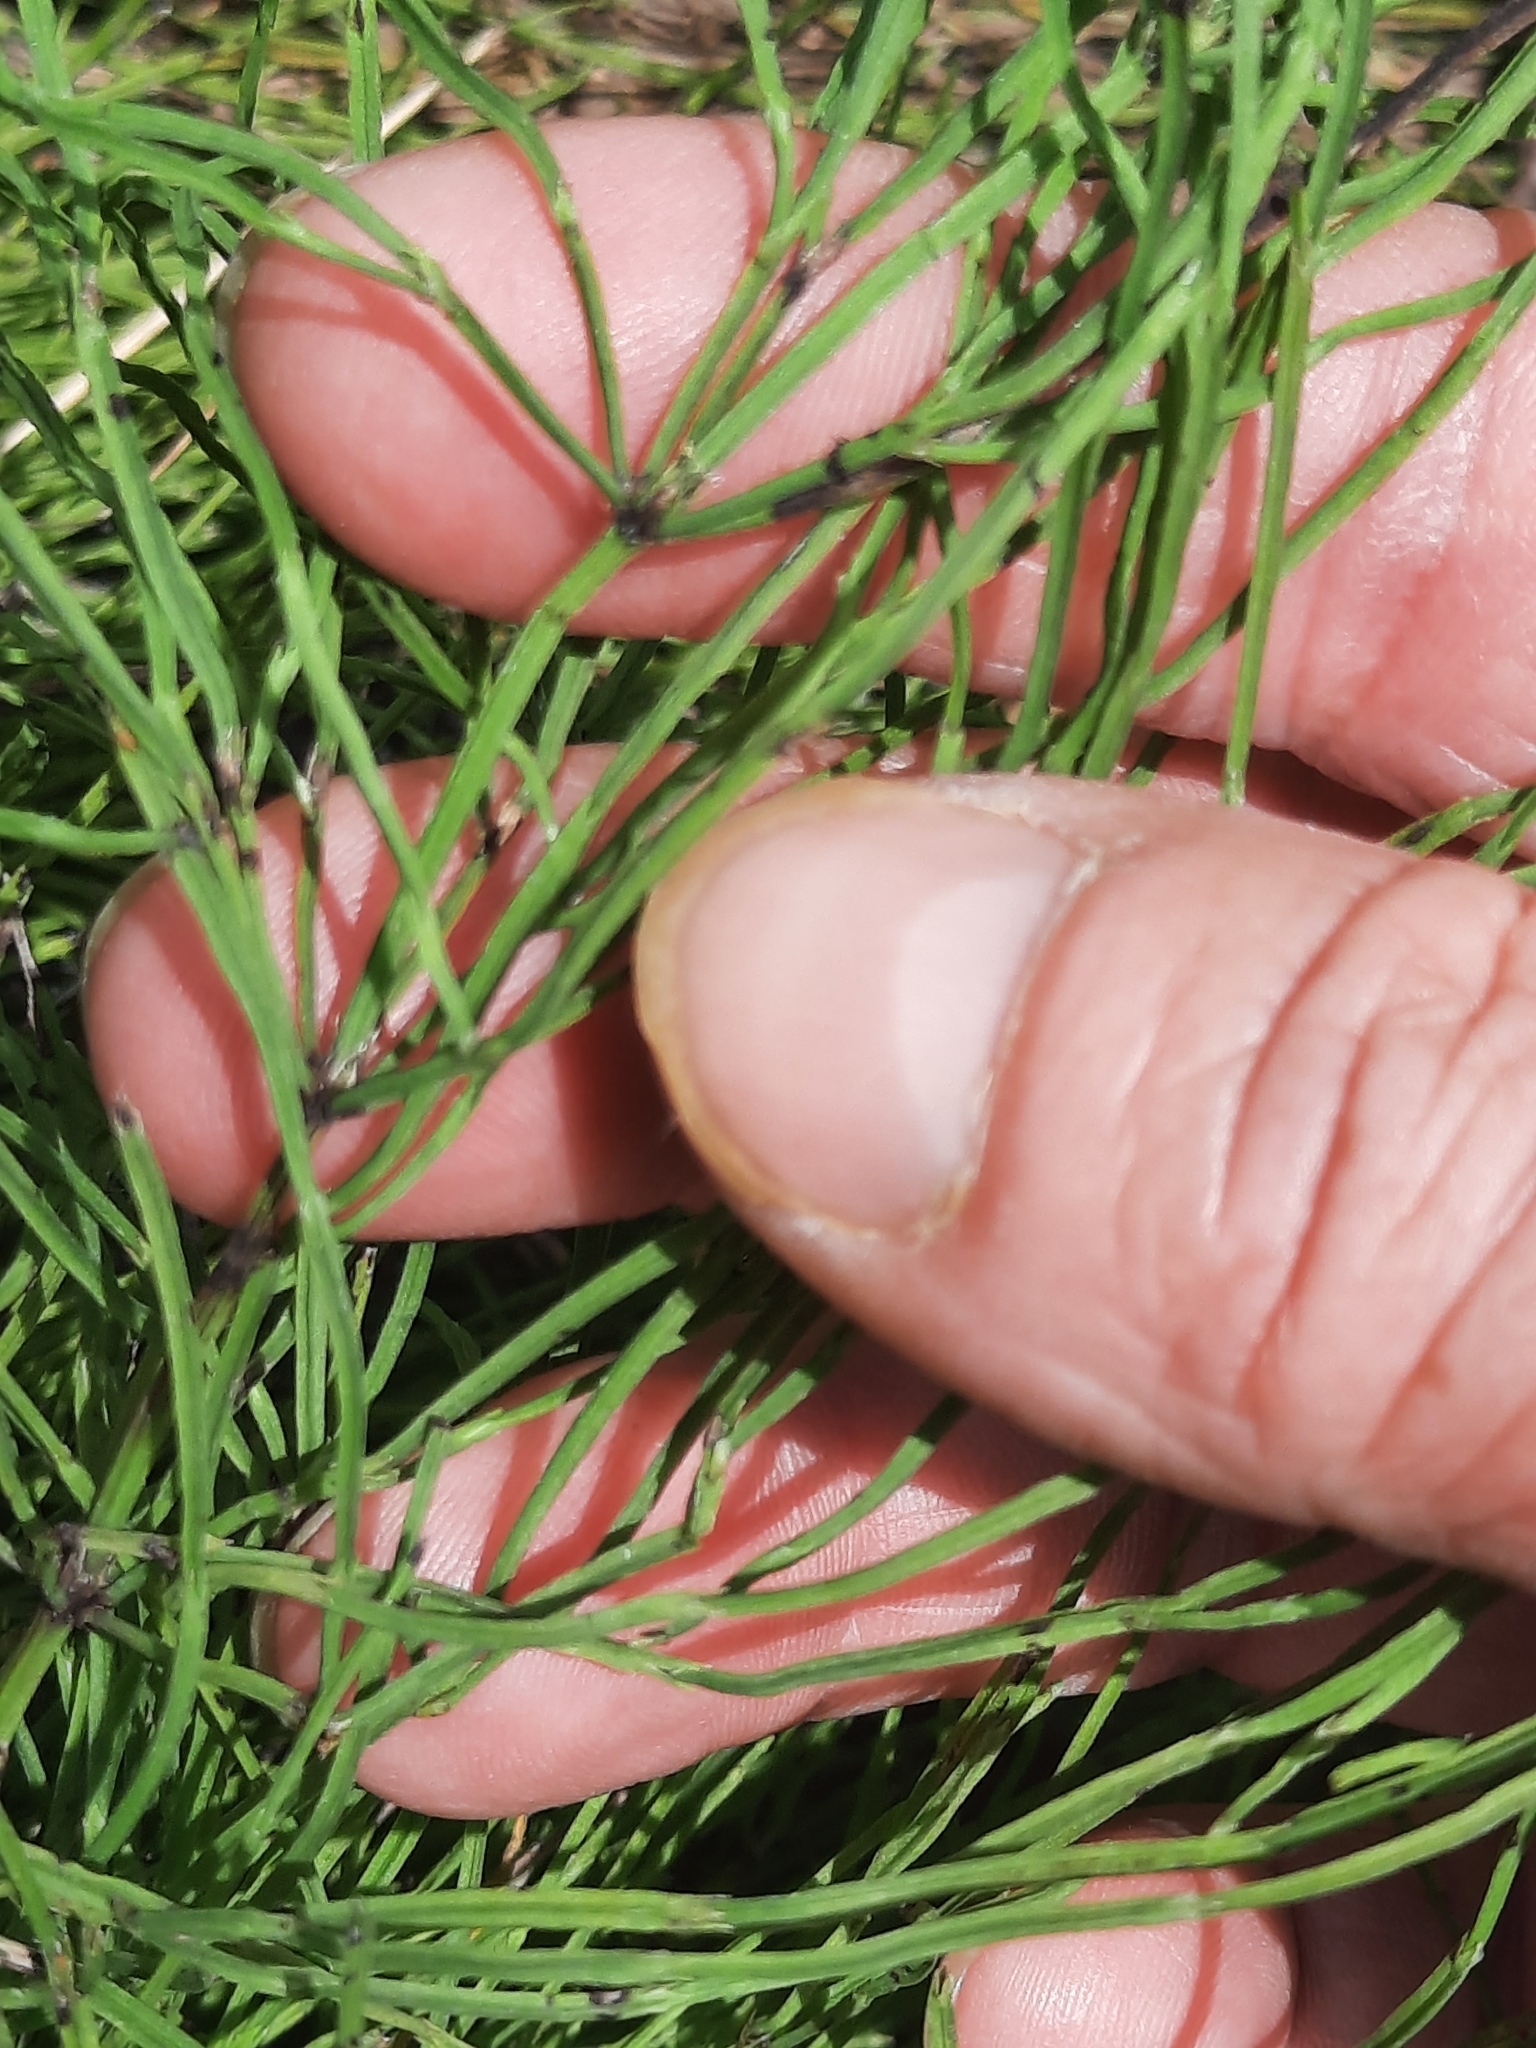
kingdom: Plantae
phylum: Tracheophyta
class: Polypodiopsida
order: Equisetales
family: Equisetaceae
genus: Equisetum
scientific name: Equisetum arvense
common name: Field horsetail
